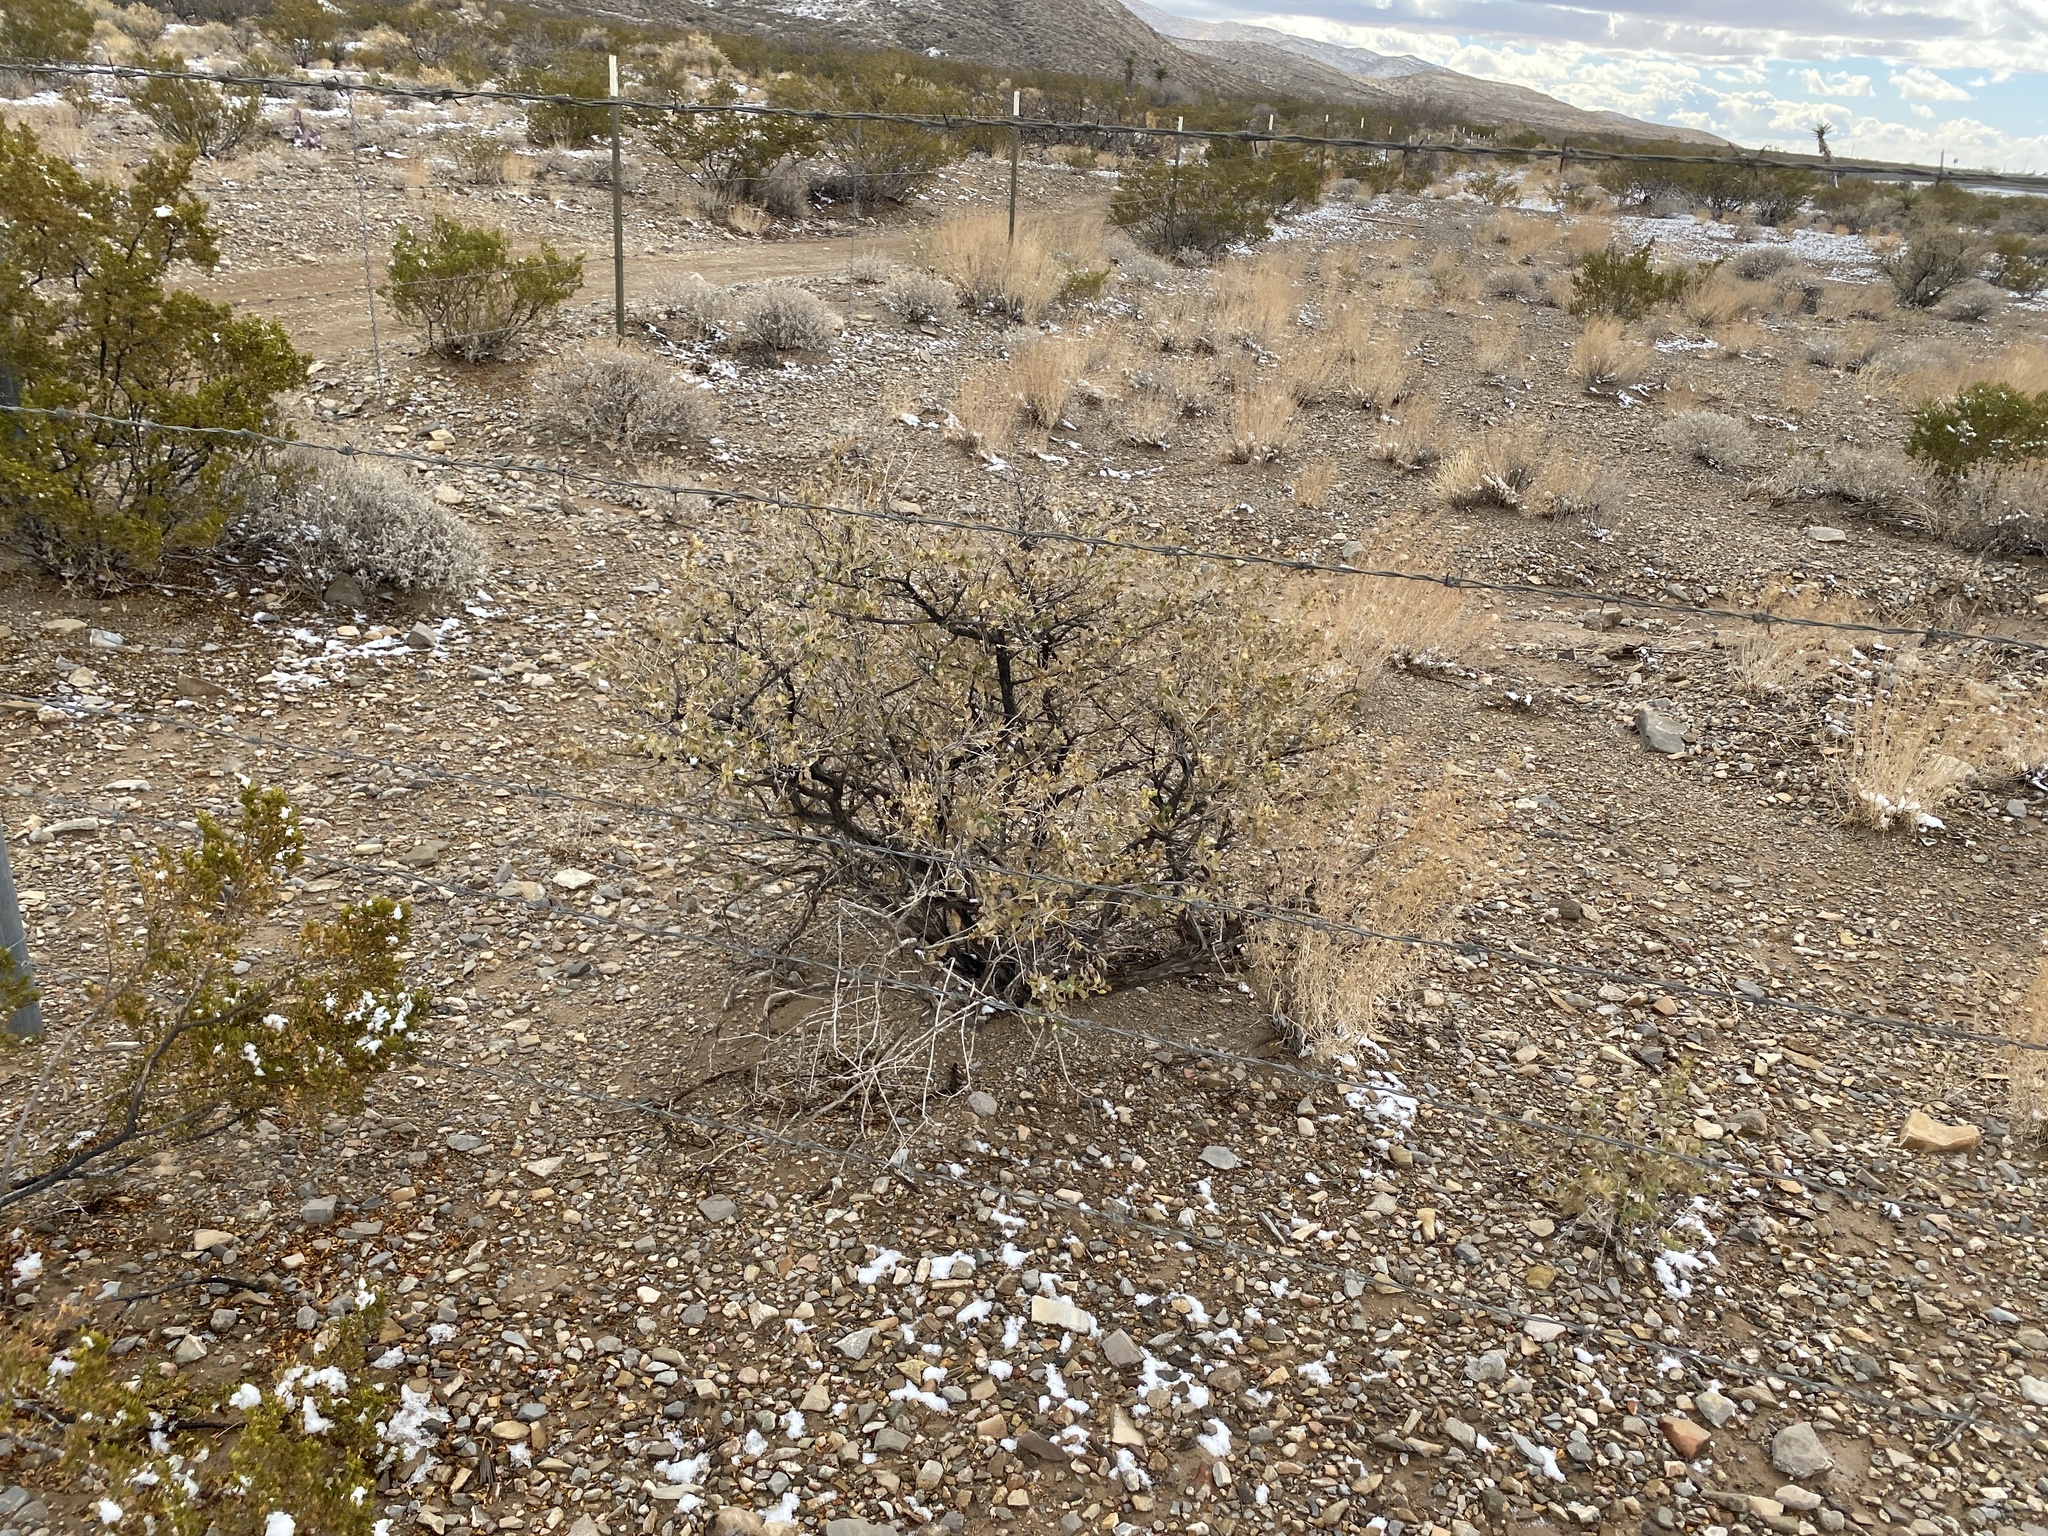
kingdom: Plantae
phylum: Tracheophyta
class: Magnoliopsida
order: Asterales
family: Asteraceae
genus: Flourensia
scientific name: Flourensia cernua
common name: Varnishbush
